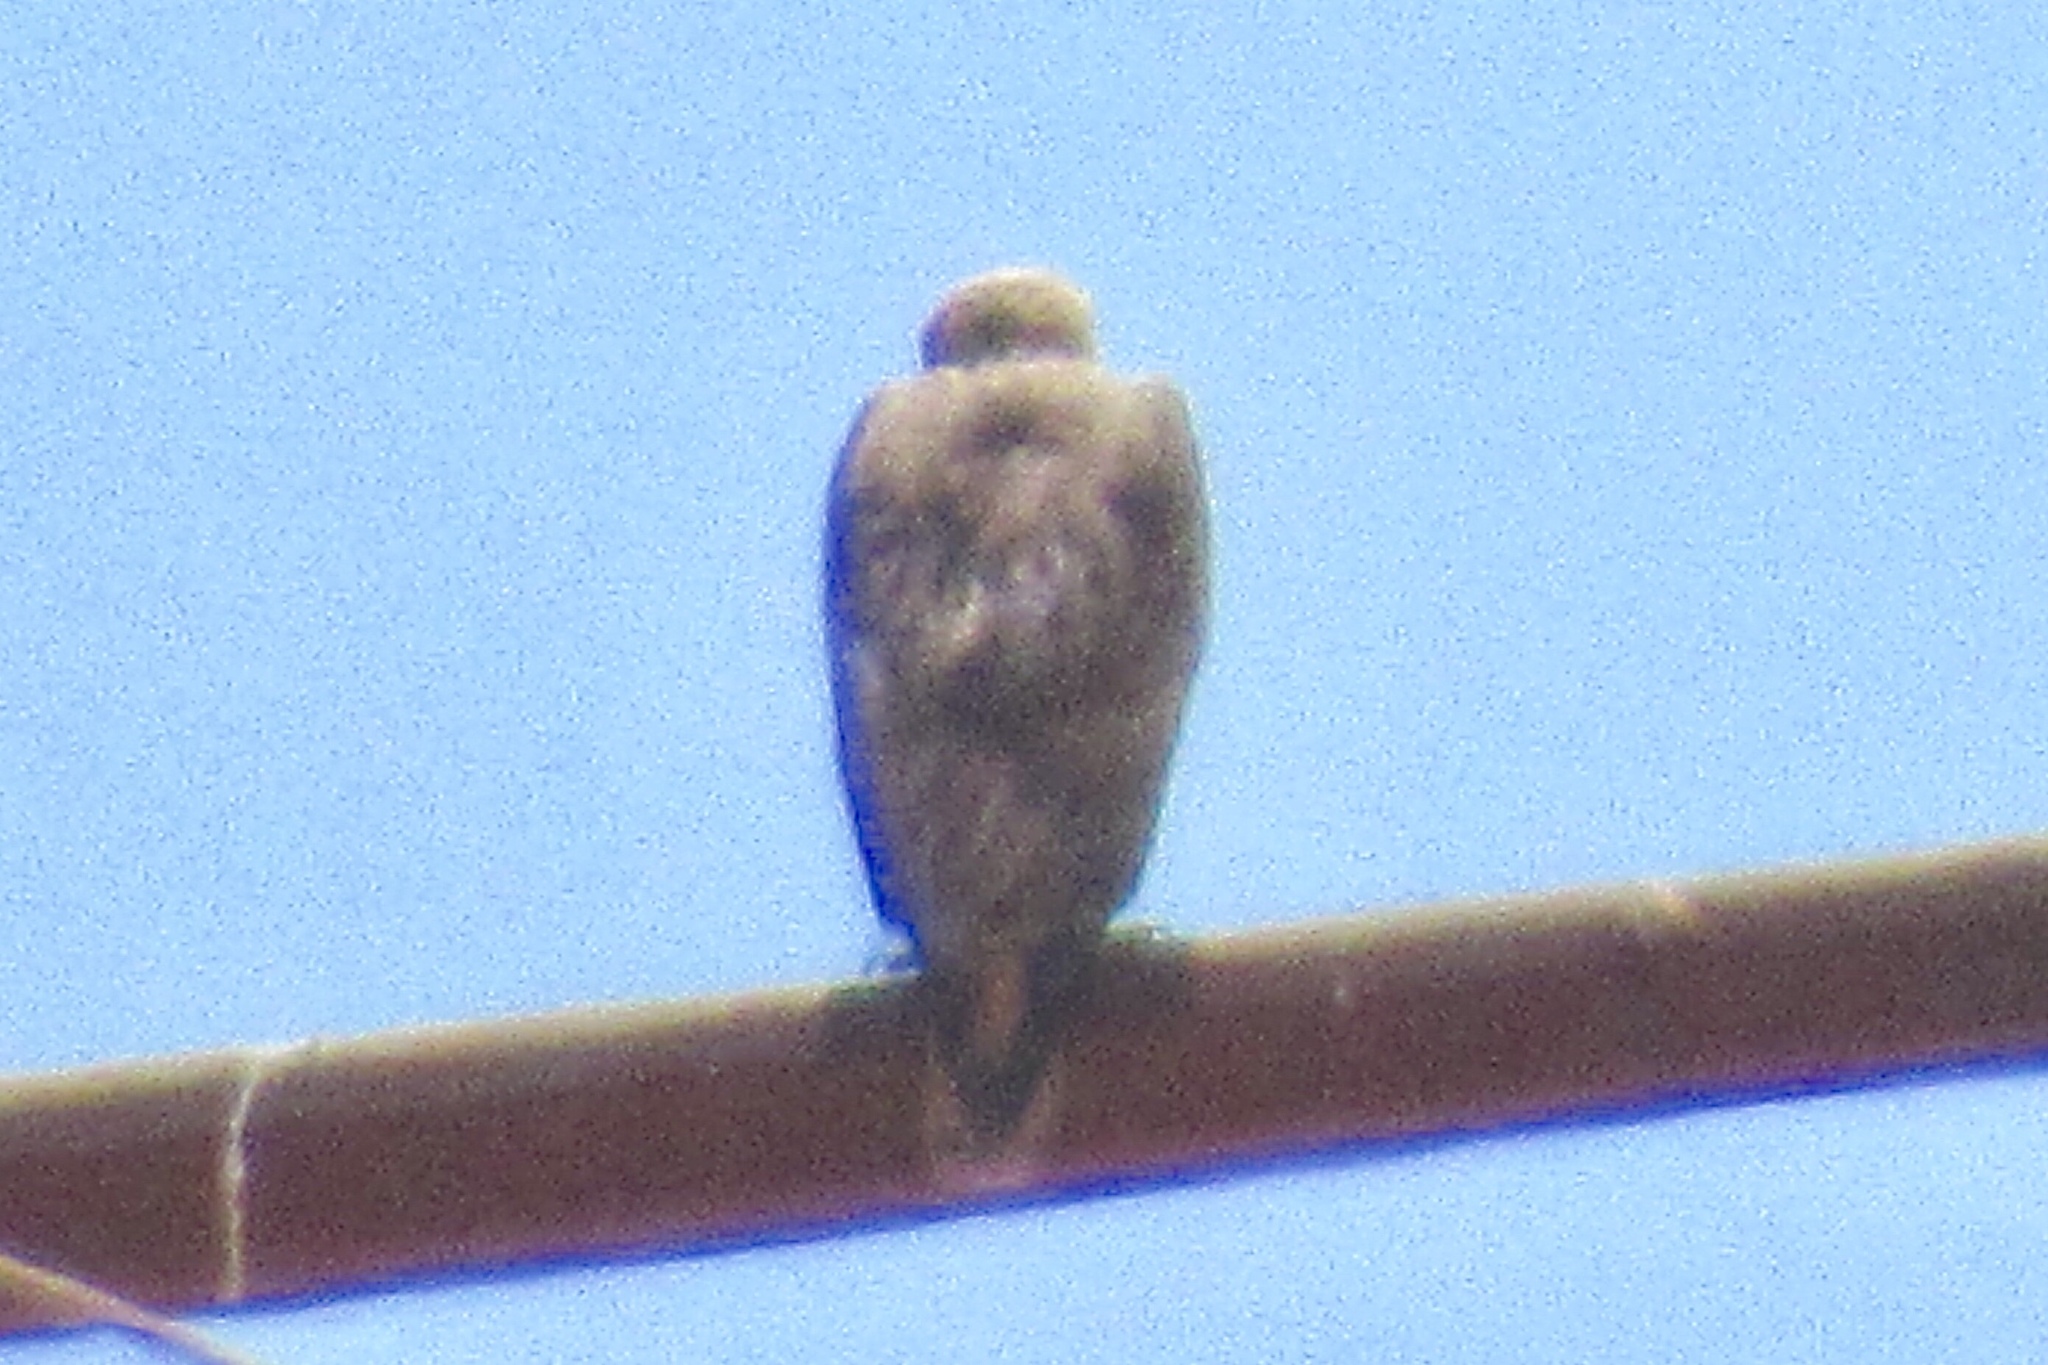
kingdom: Animalia
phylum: Chordata
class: Aves
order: Accipitriformes
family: Accipitridae
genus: Buteo
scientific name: Buteo jamaicensis
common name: Red-tailed hawk
